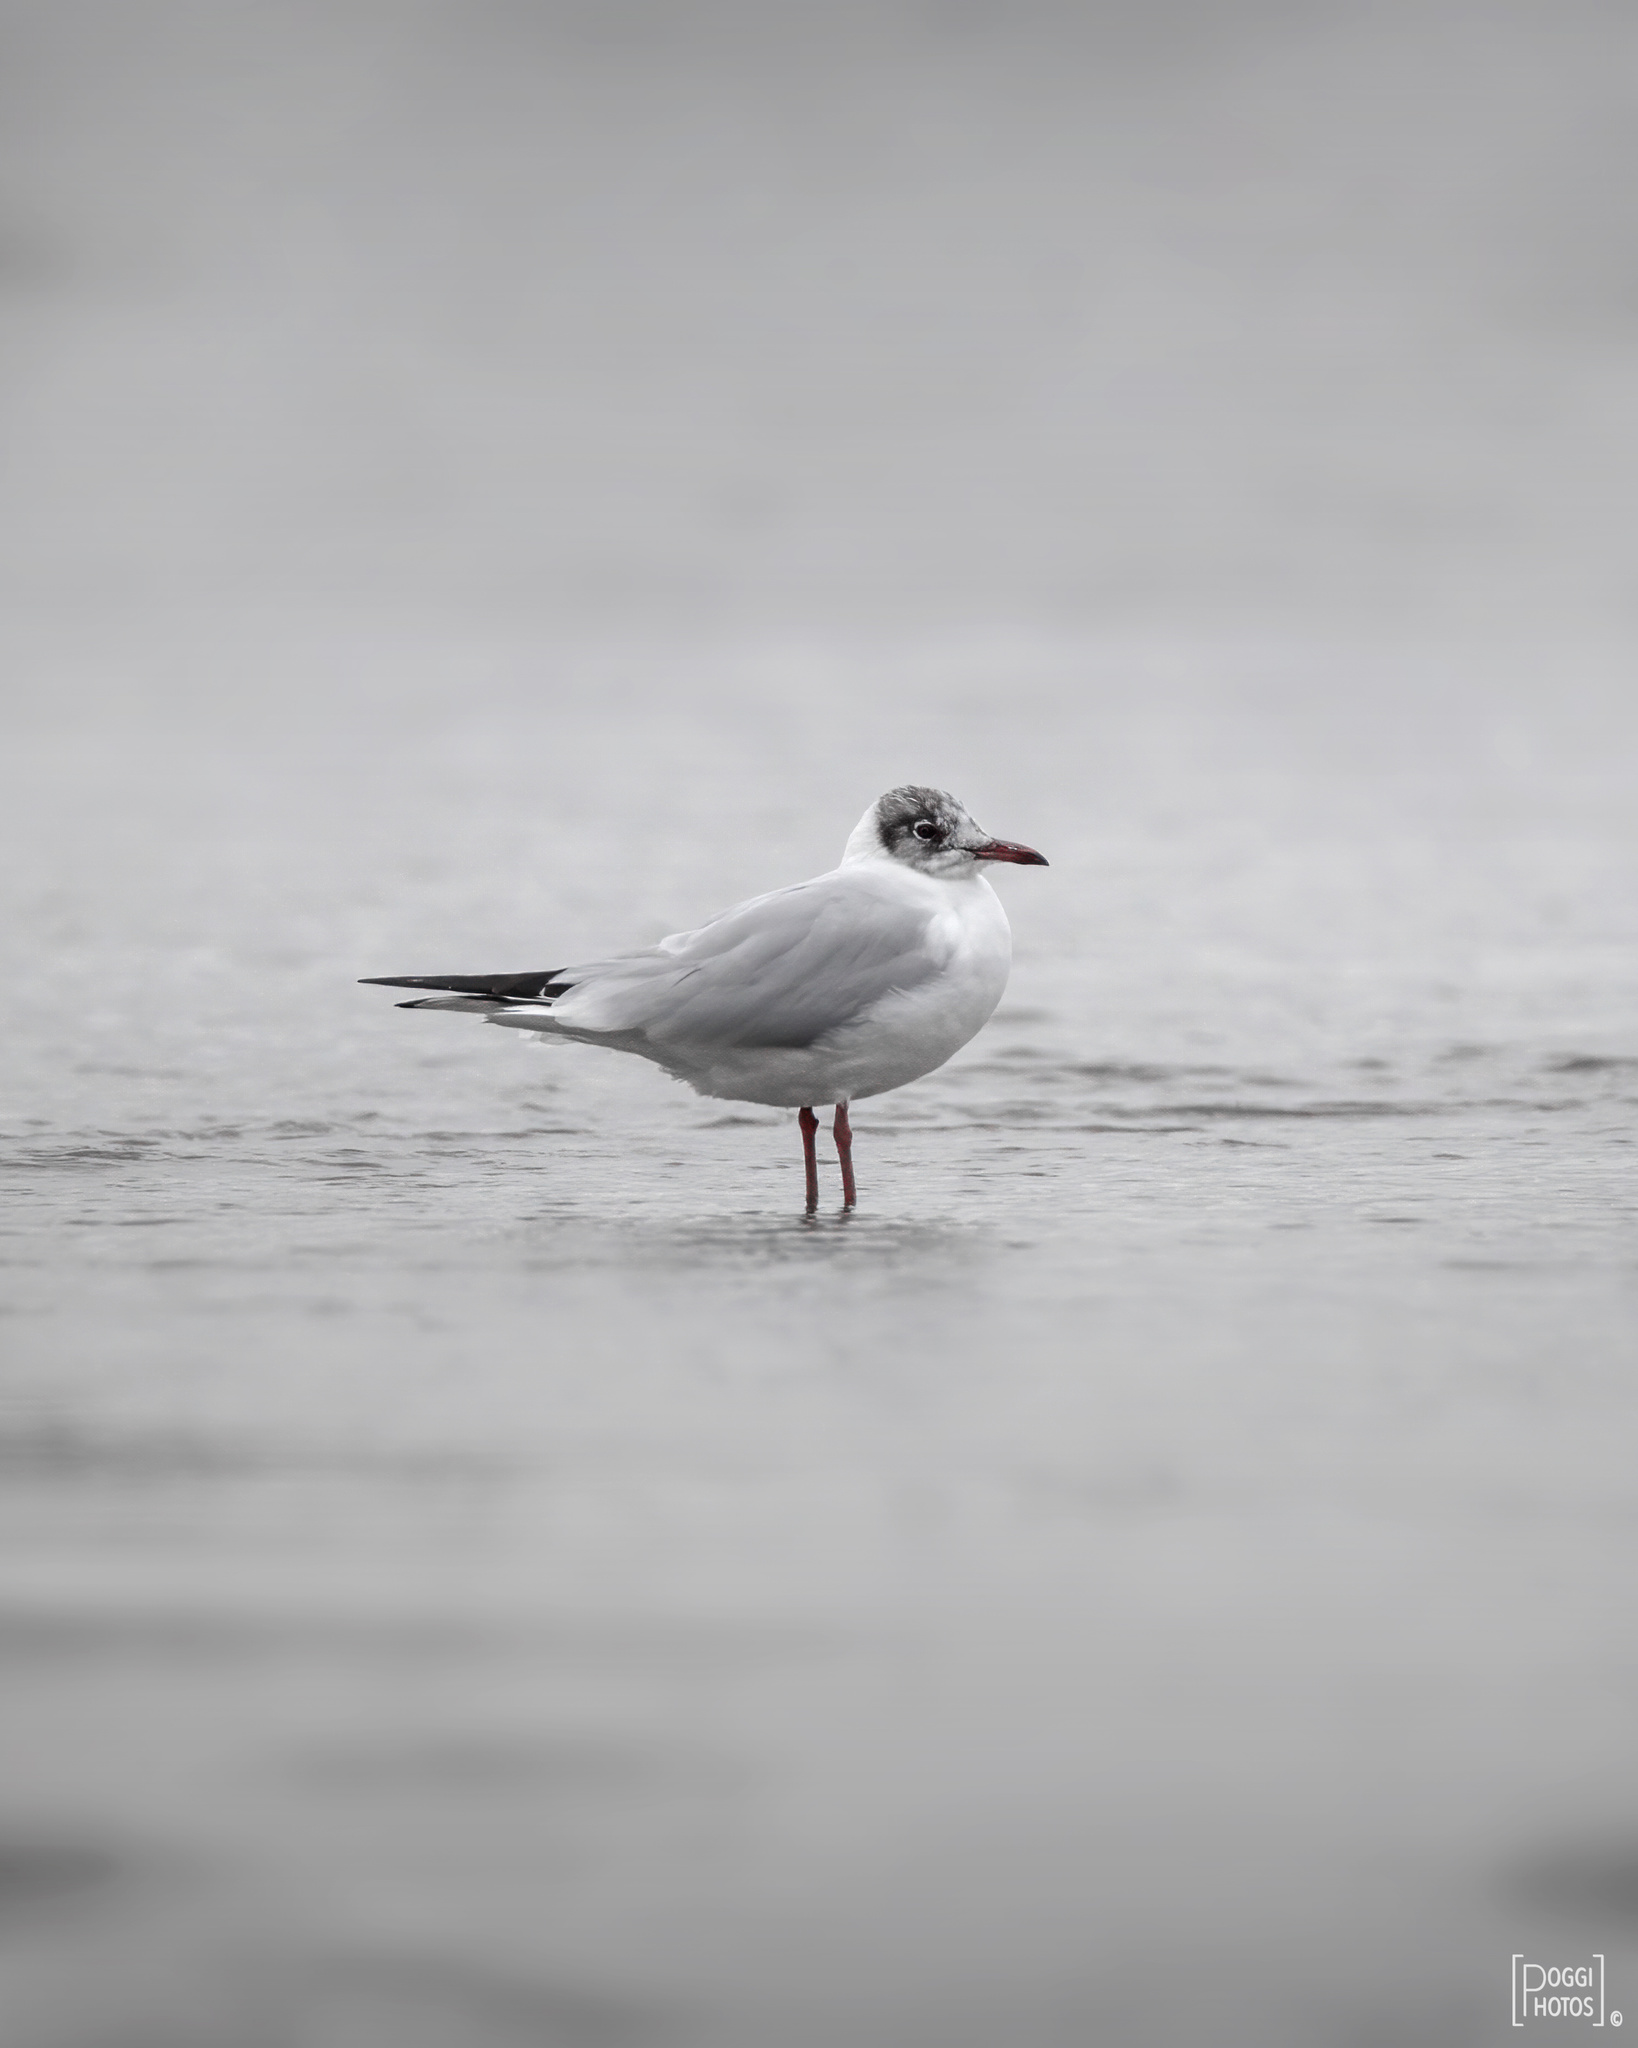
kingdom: Animalia
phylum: Chordata
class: Aves
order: Charadriiformes
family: Laridae
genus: Chroicocephalus
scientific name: Chroicocephalus ridibundus
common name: Black-headed gull
